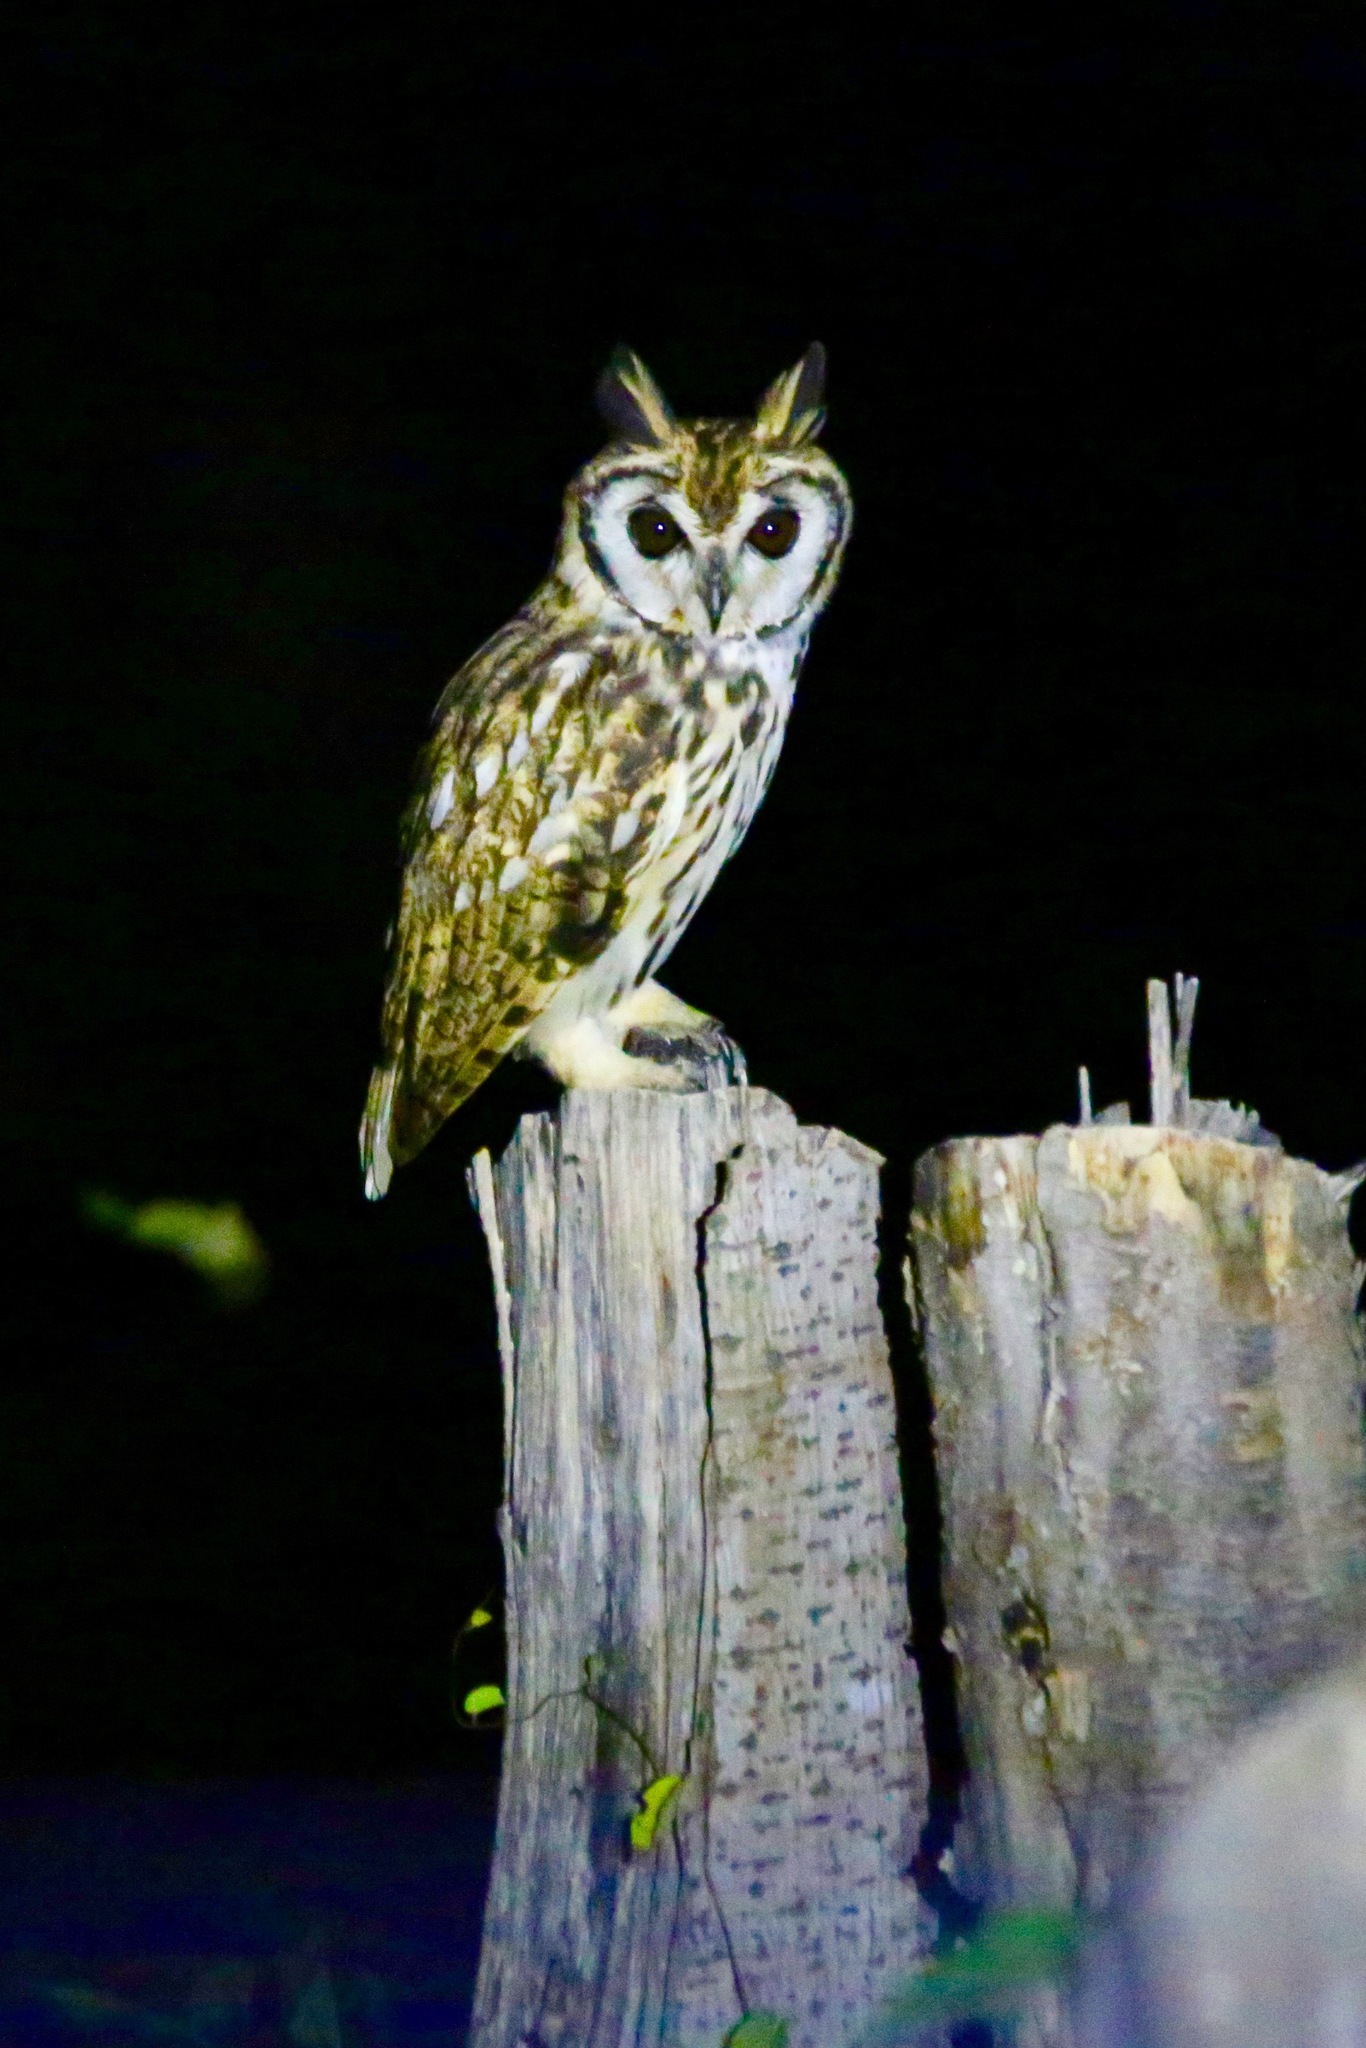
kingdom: Animalia
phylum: Chordata
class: Aves
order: Strigiformes
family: Strigidae
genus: Pseudoscops
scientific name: Pseudoscops clamator
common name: Striped owl
